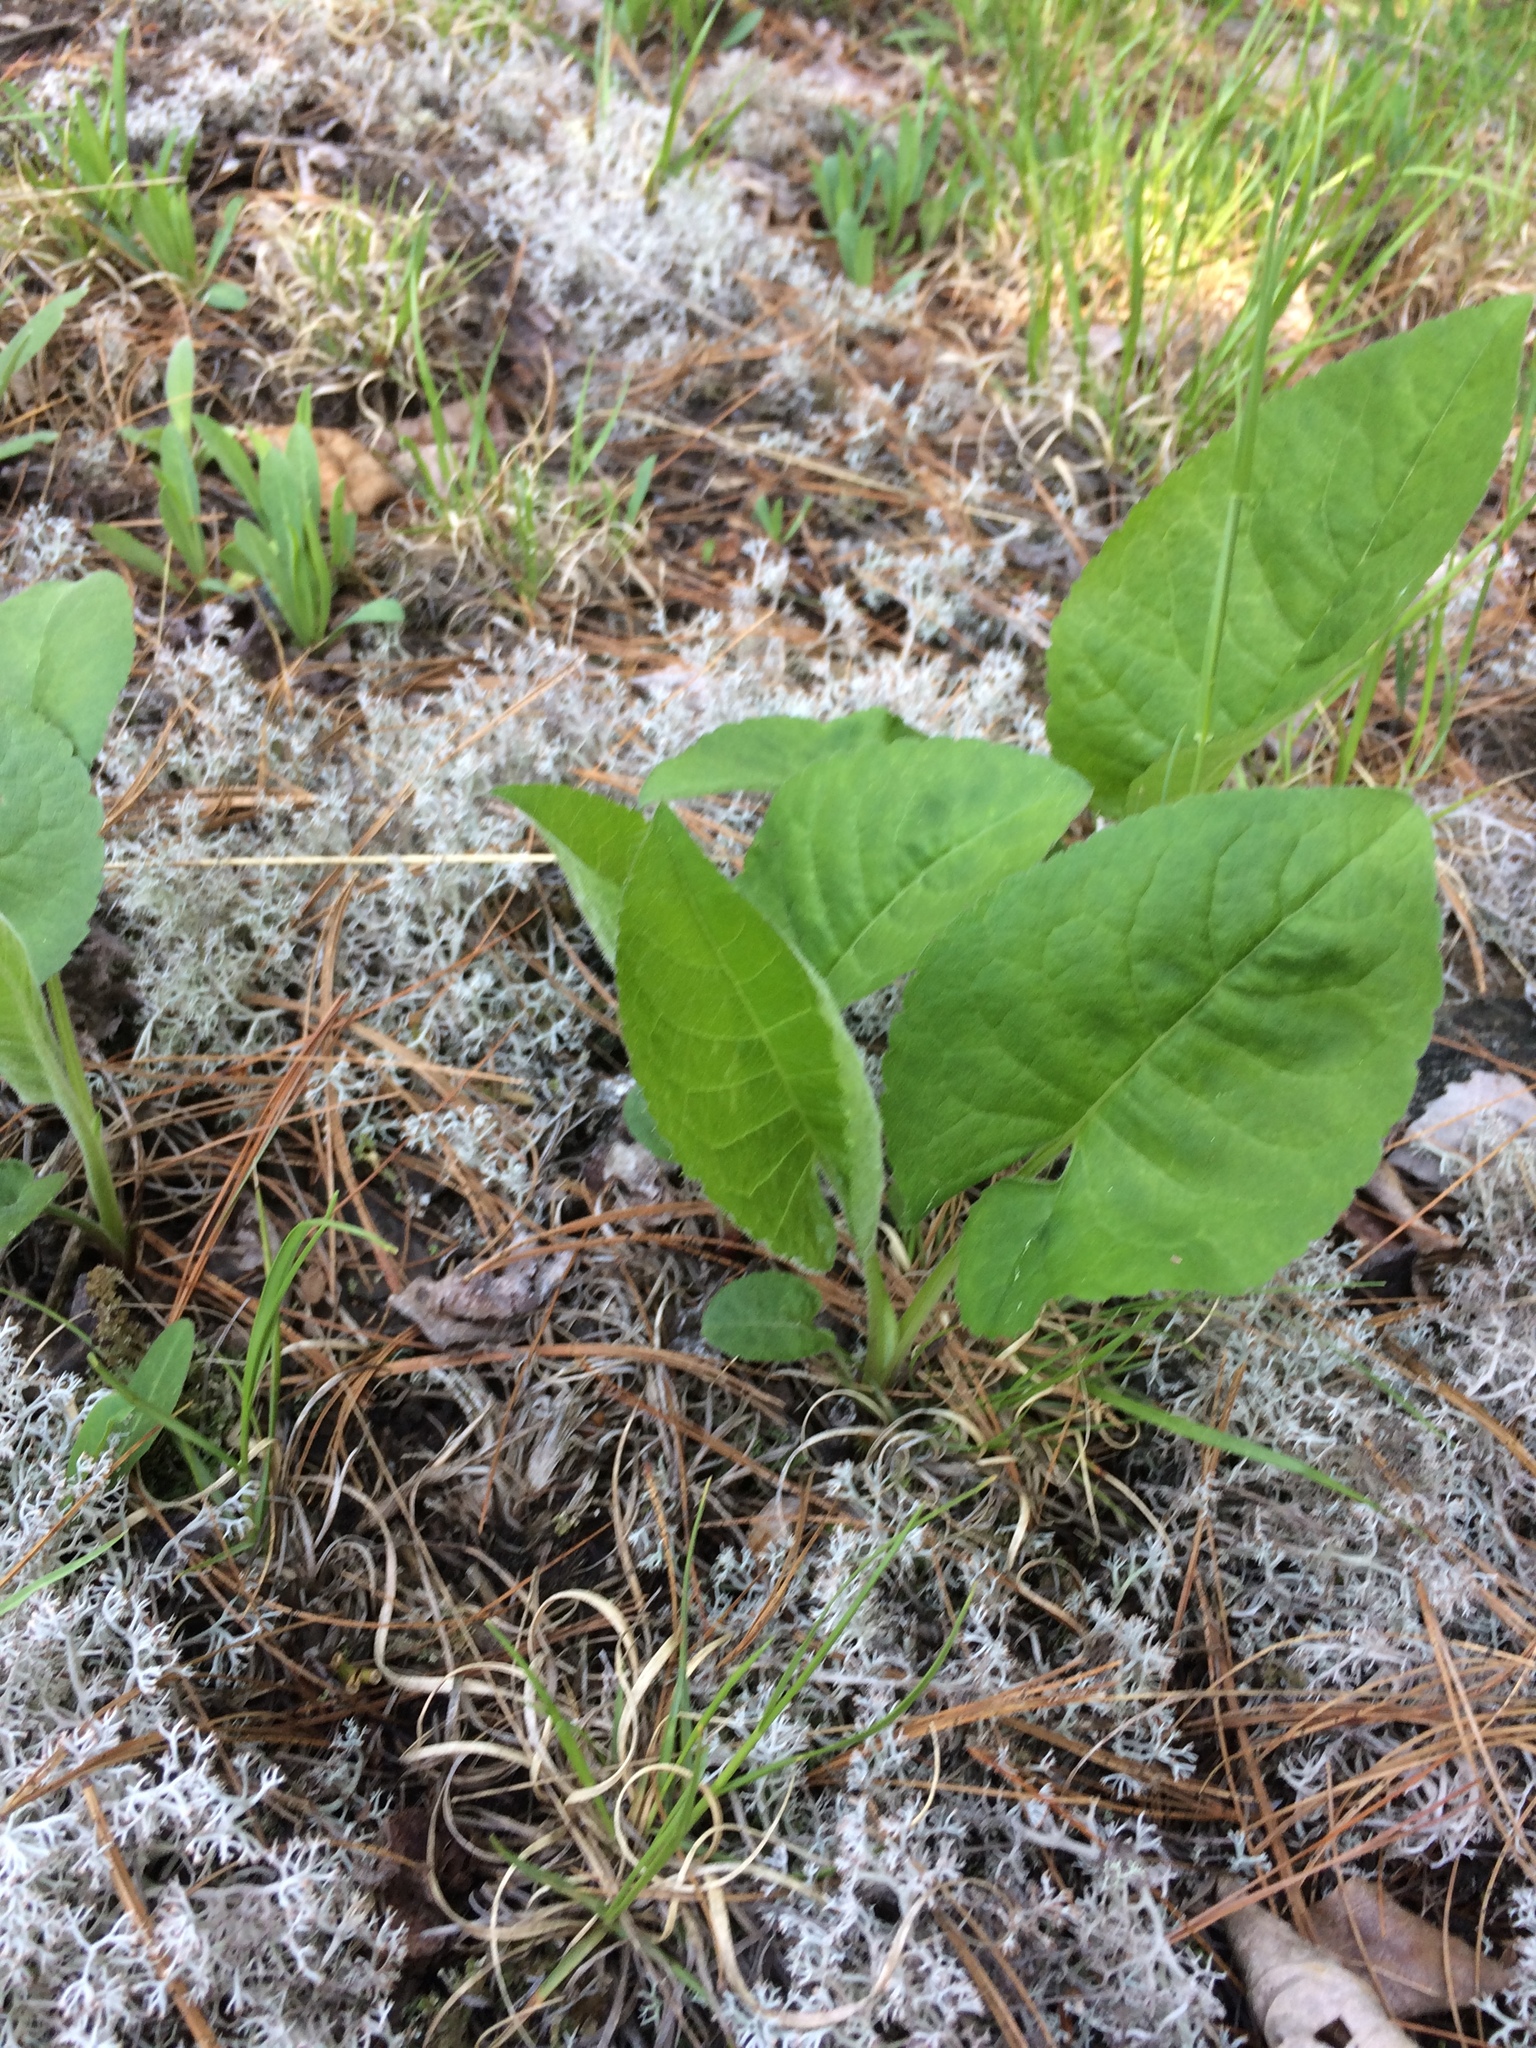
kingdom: Plantae
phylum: Tracheophyta
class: Magnoliopsida
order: Asterales
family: Asteraceae
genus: Eurybia
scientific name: Eurybia macrophylla
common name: Big-leaved aster
